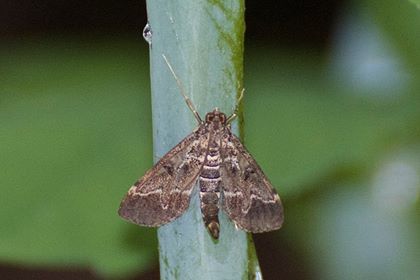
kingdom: Animalia
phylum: Arthropoda
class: Insecta
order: Lepidoptera
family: Crambidae
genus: Duponchelia
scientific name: Duponchelia fovealis
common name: Crambid moth
